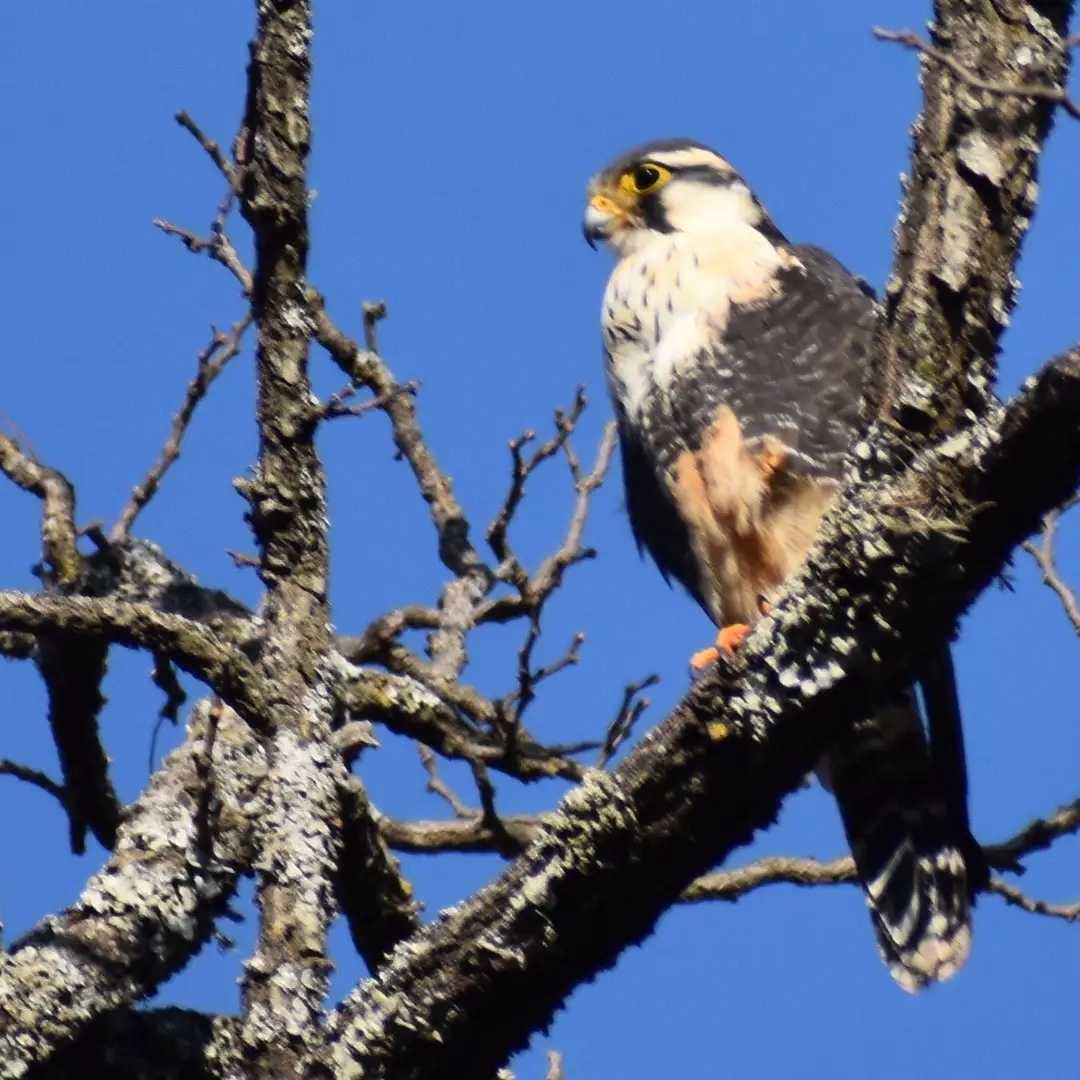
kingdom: Animalia
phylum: Chordata
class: Aves
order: Falconiformes
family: Falconidae
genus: Falco
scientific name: Falco femoralis
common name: Aplomado falcon
